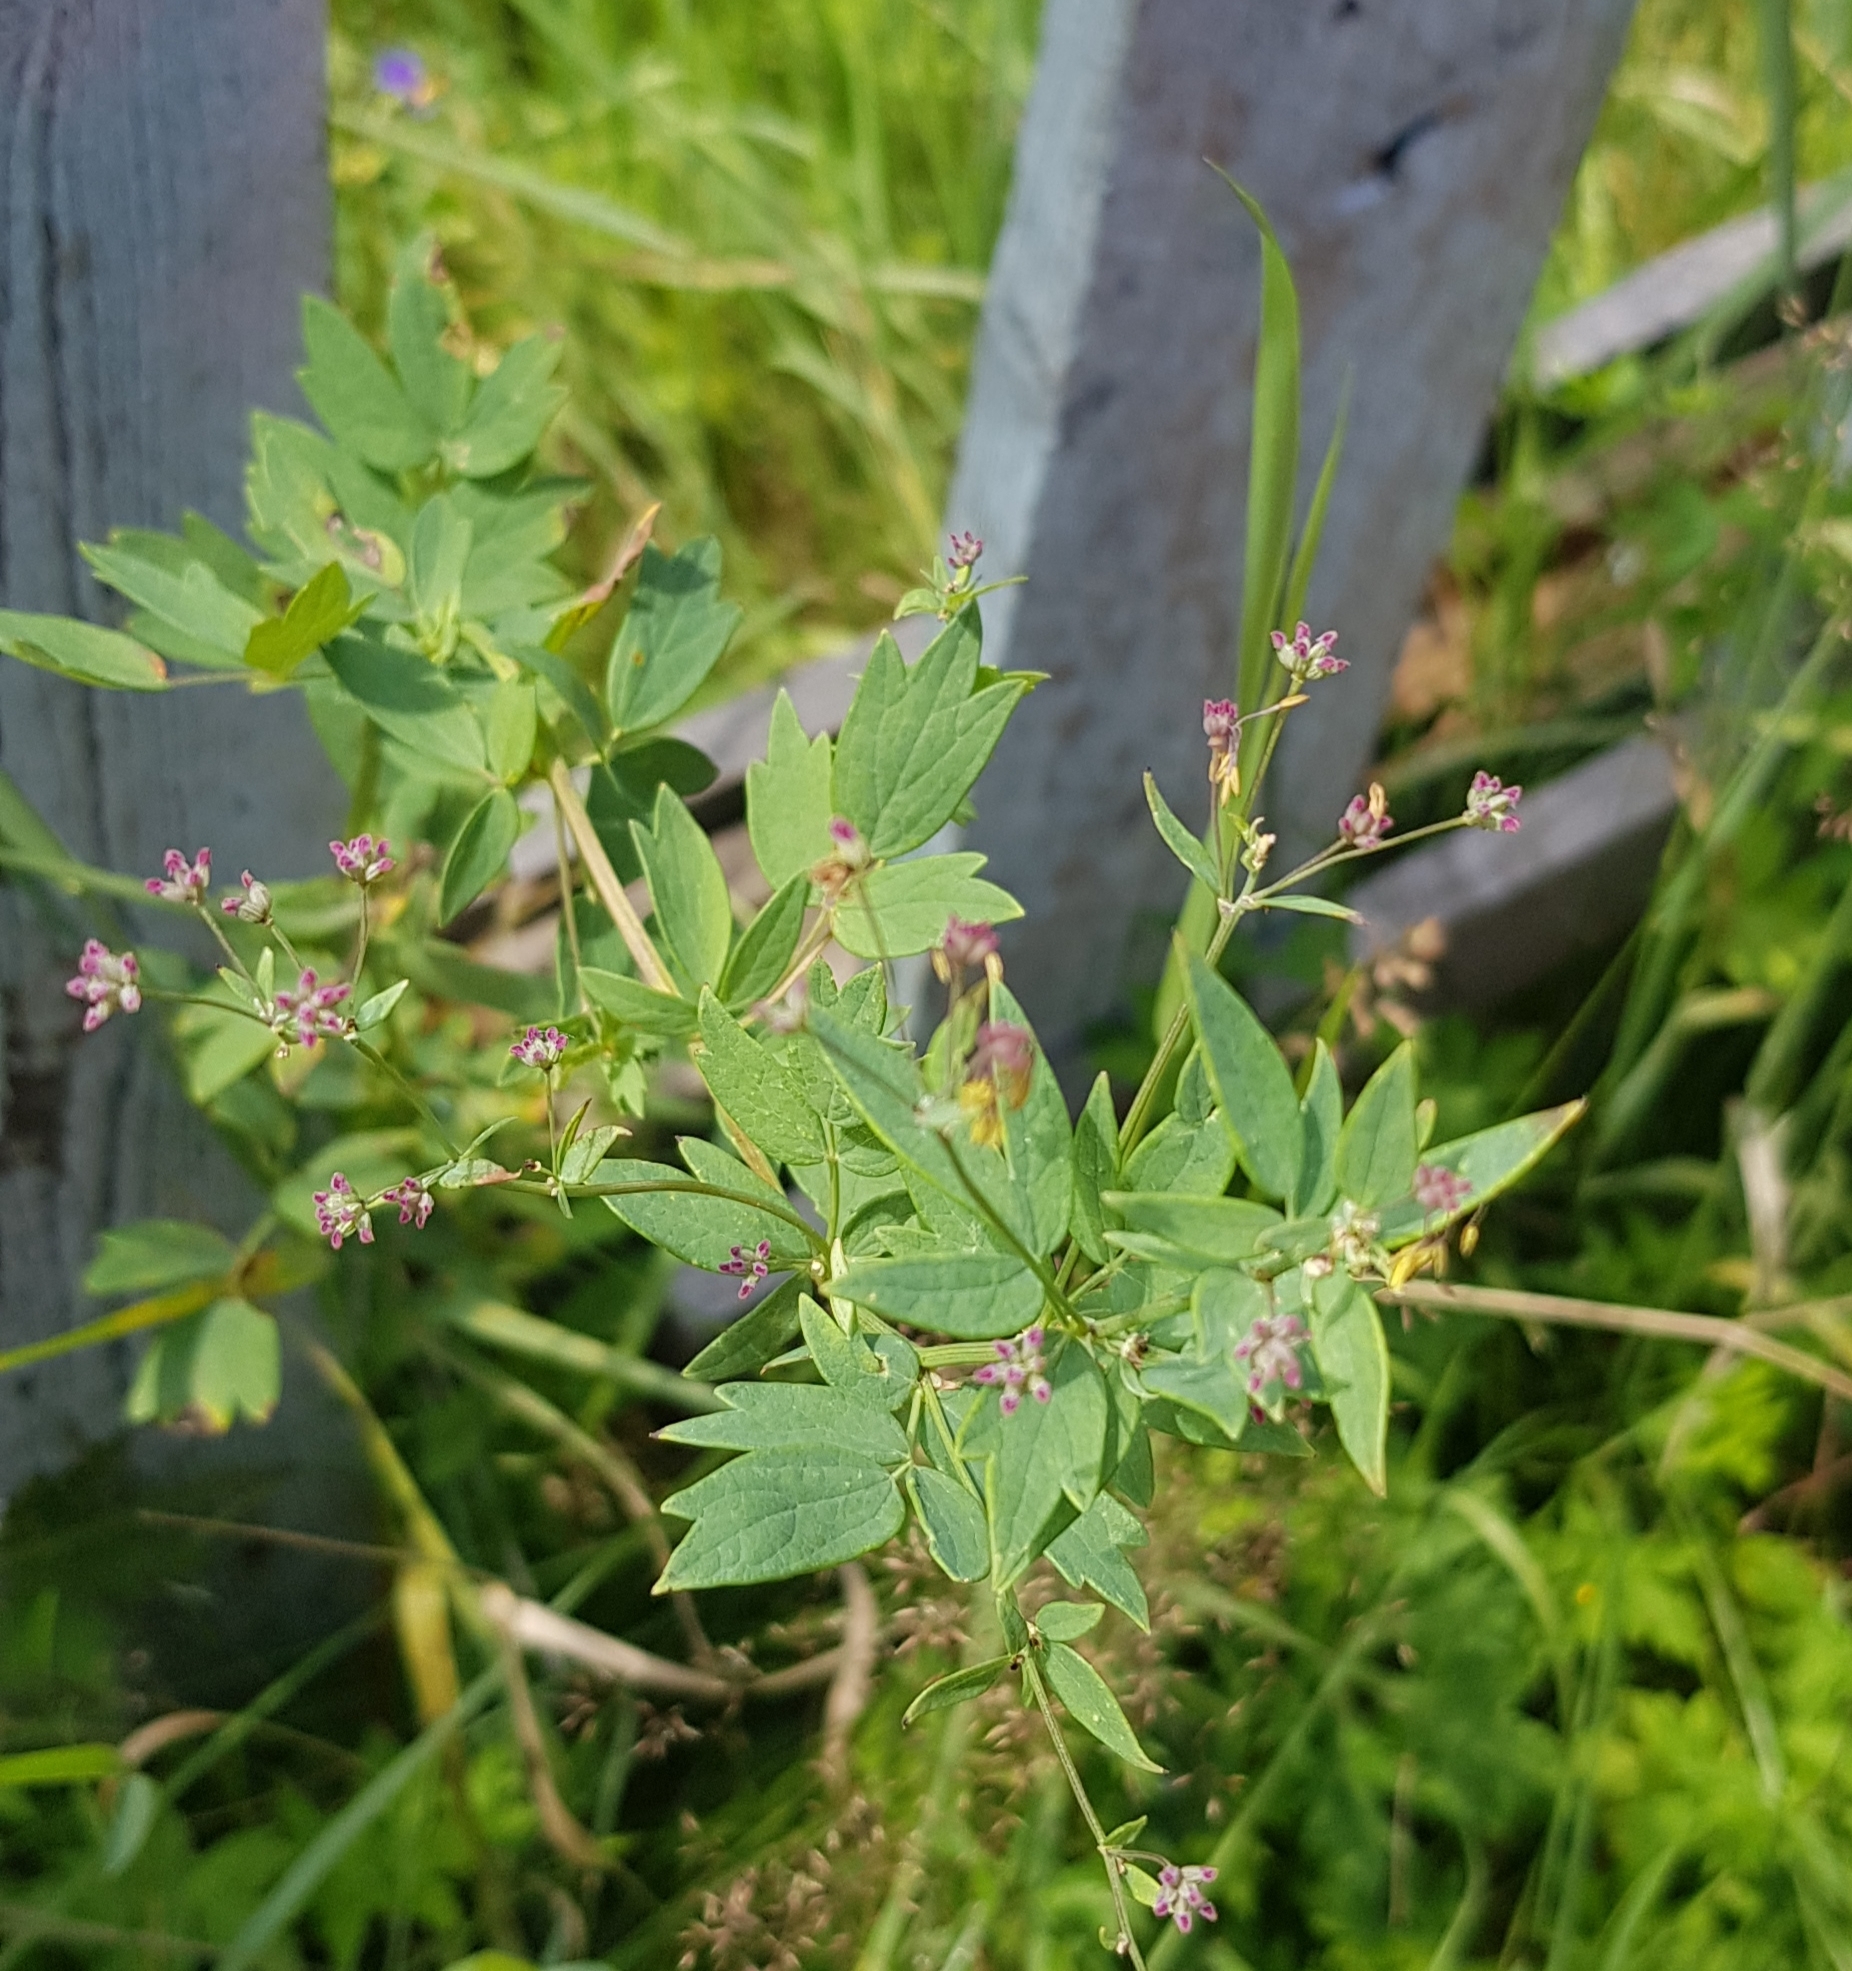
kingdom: Plantae
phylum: Tracheophyta
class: Magnoliopsida
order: Ranunculales
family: Ranunculaceae
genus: Thalictrum
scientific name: Thalictrum simplex
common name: Small meadow-rue
